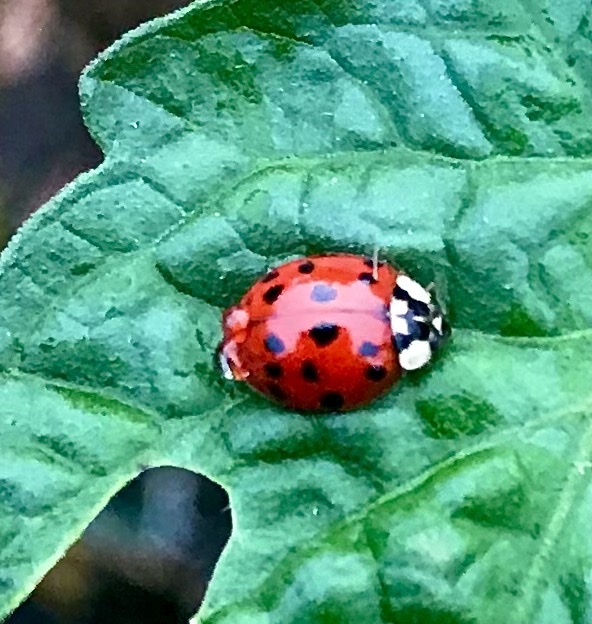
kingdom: Animalia
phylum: Arthropoda
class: Insecta
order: Coleoptera
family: Coccinellidae
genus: Harmonia
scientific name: Harmonia axyridis
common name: Harlequin ladybird
